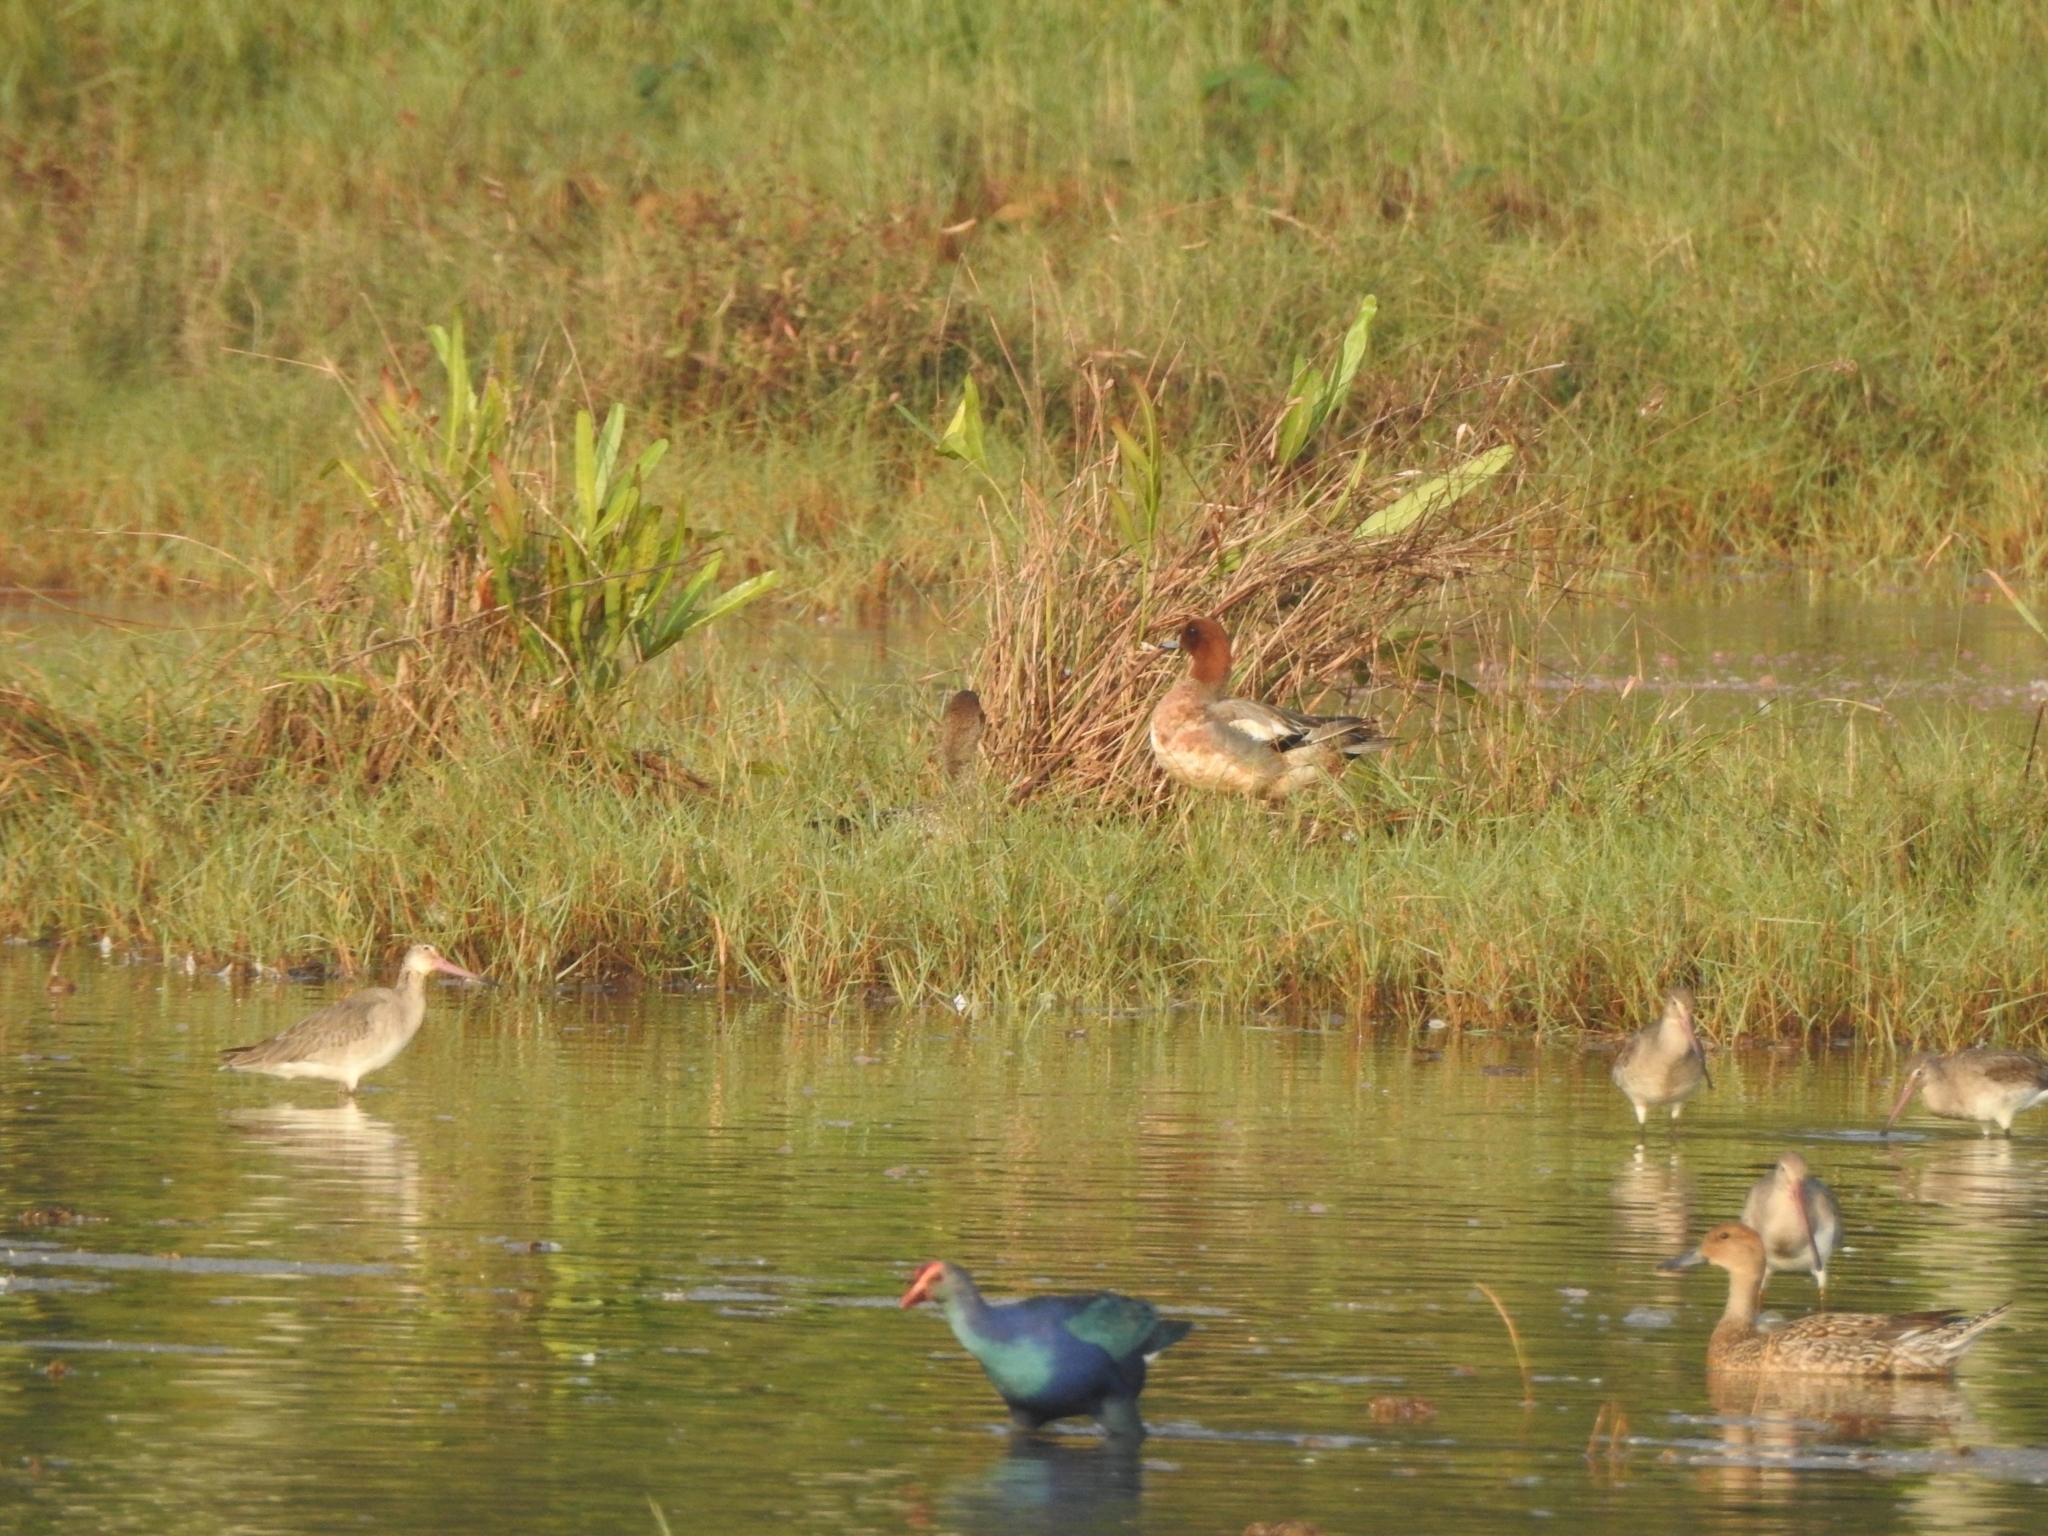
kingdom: Animalia
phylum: Chordata
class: Aves
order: Charadriiformes
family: Scolopacidae
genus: Limosa
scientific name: Limosa limosa
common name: Black-tailed godwit
